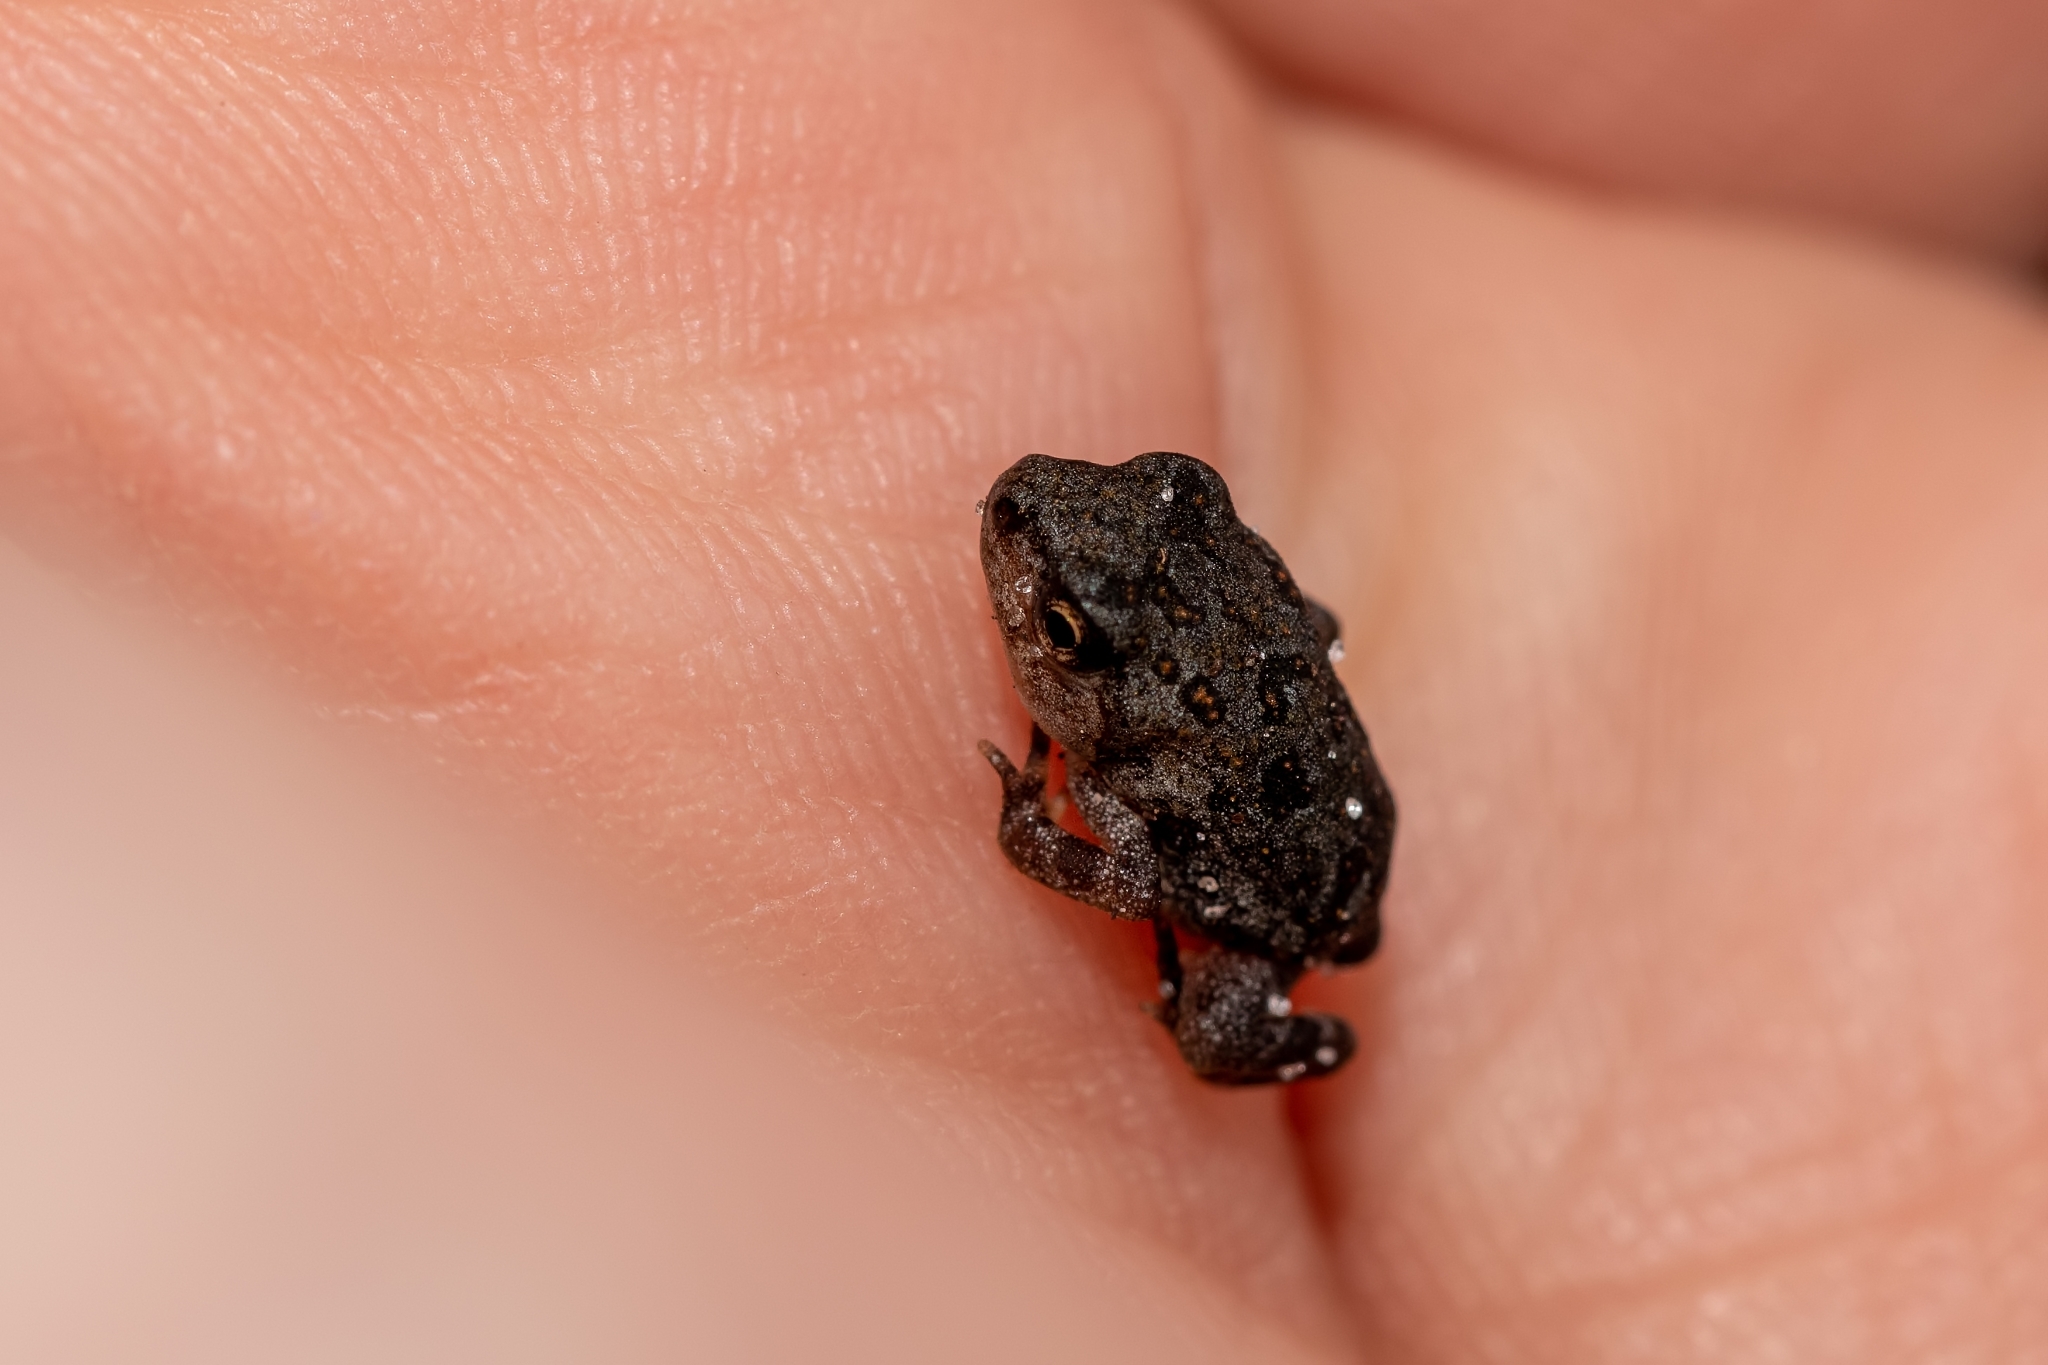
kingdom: Animalia
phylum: Chordata
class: Amphibia
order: Anura
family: Bufonidae
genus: Anaxyrus
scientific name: Anaxyrus terrestris
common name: Southern toad
